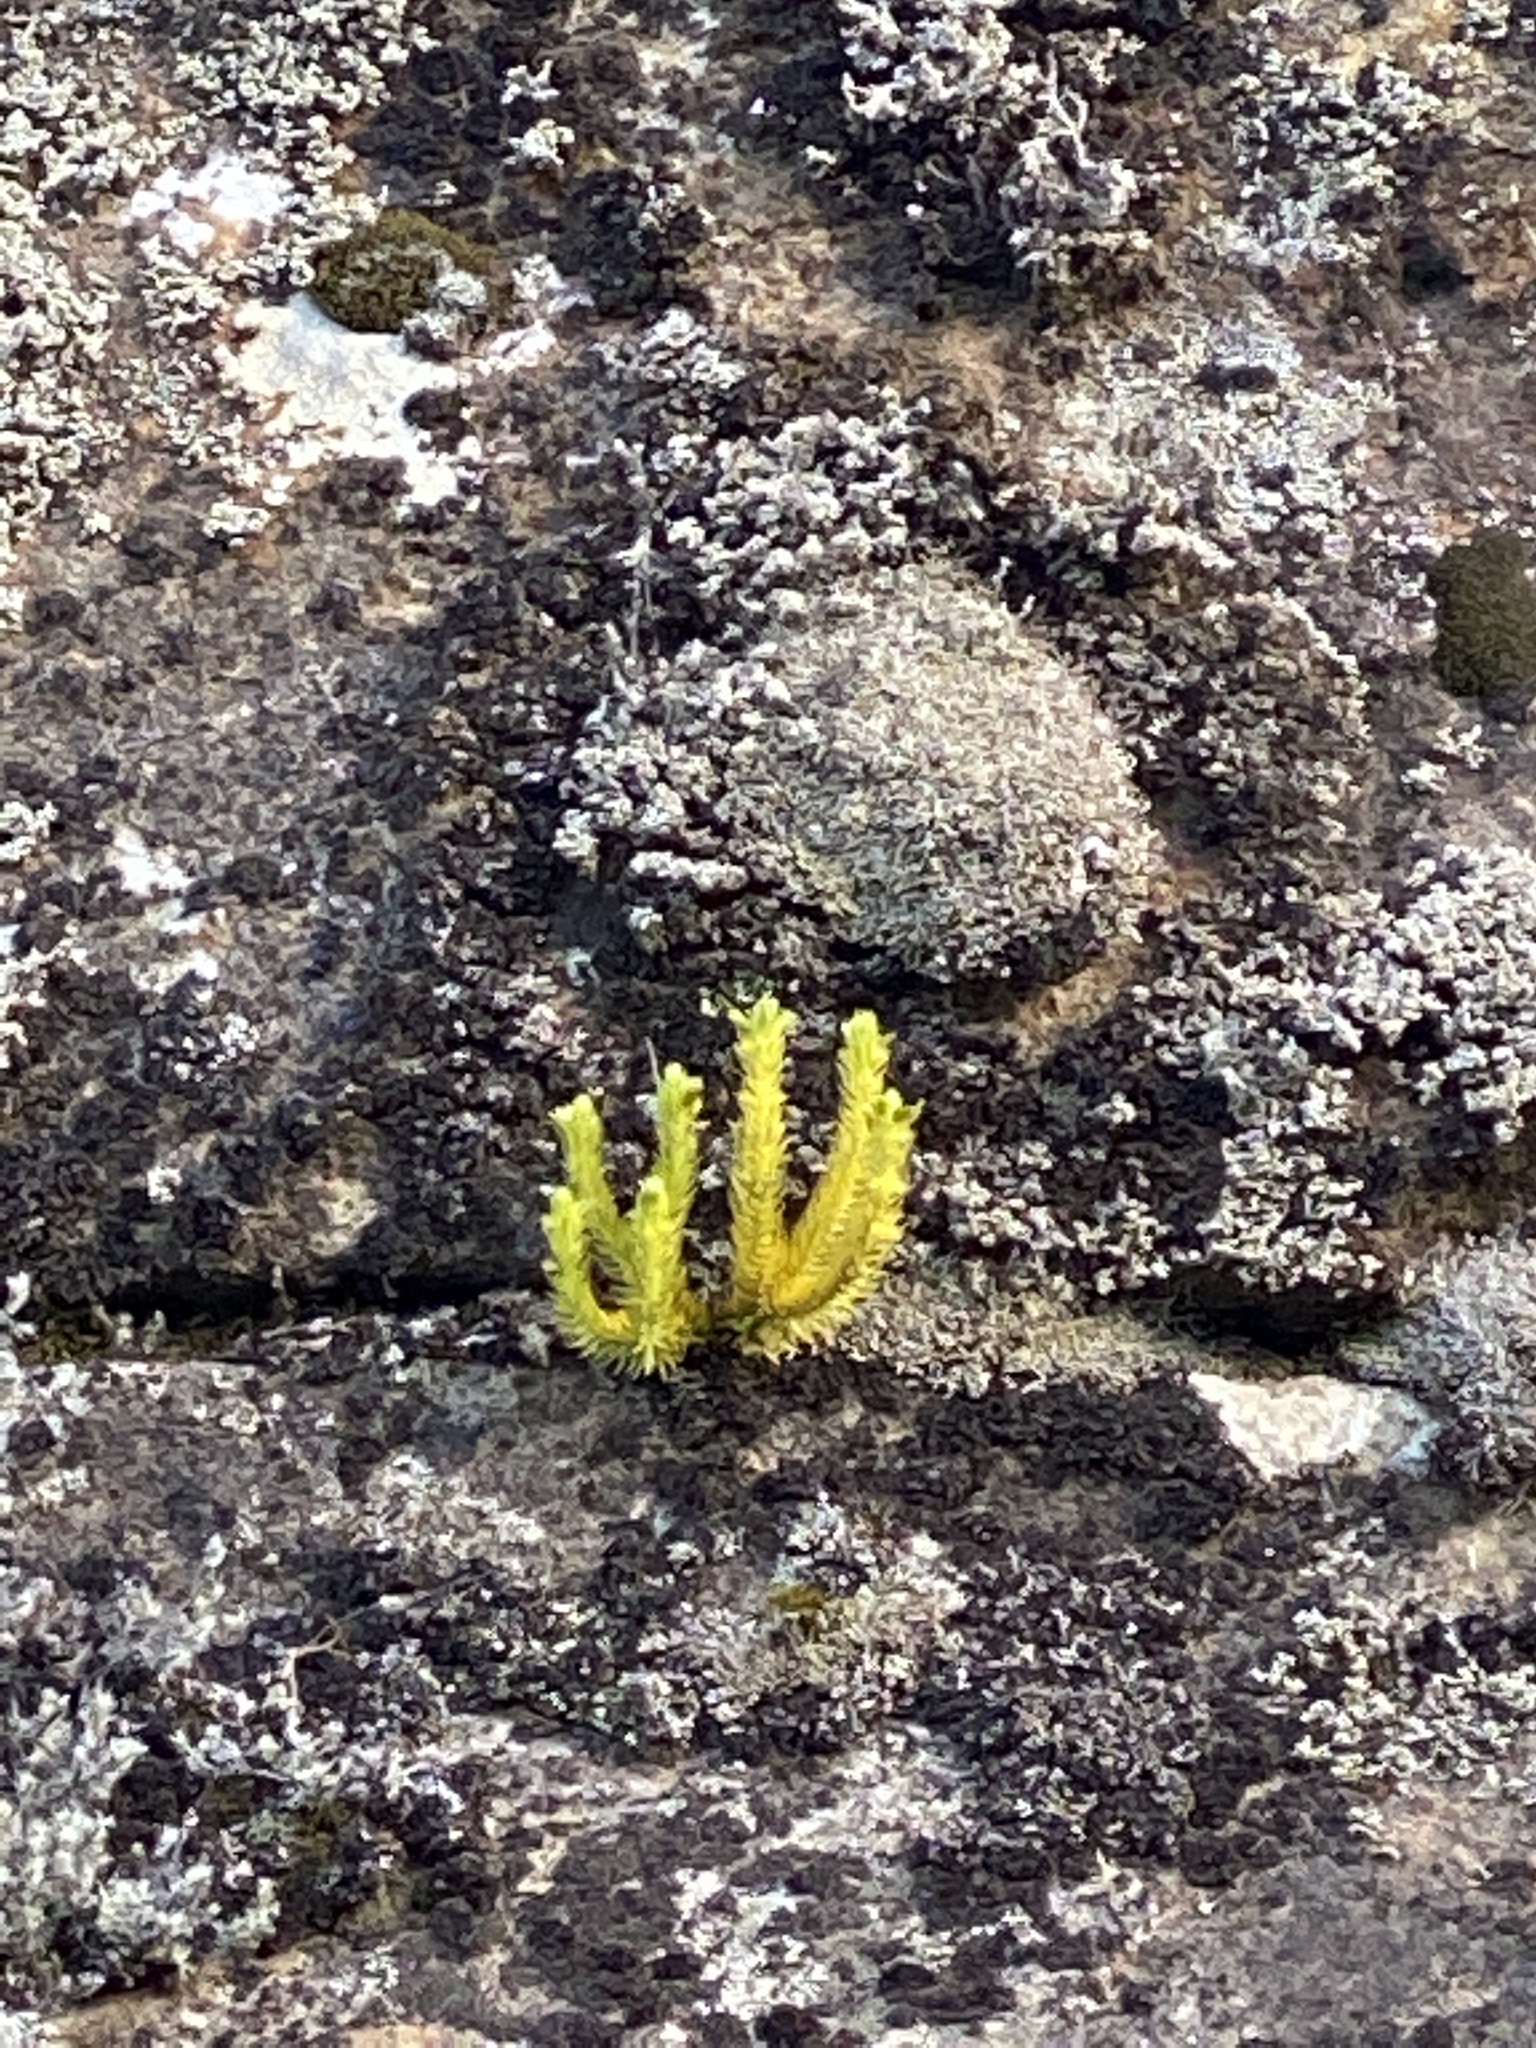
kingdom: Plantae
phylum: Tracheophyta
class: Lycopodiopsida
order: Lycopodiales
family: Lycopodiaceae
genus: Huperzia
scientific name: Huperzia selago
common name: Northern firmoss
